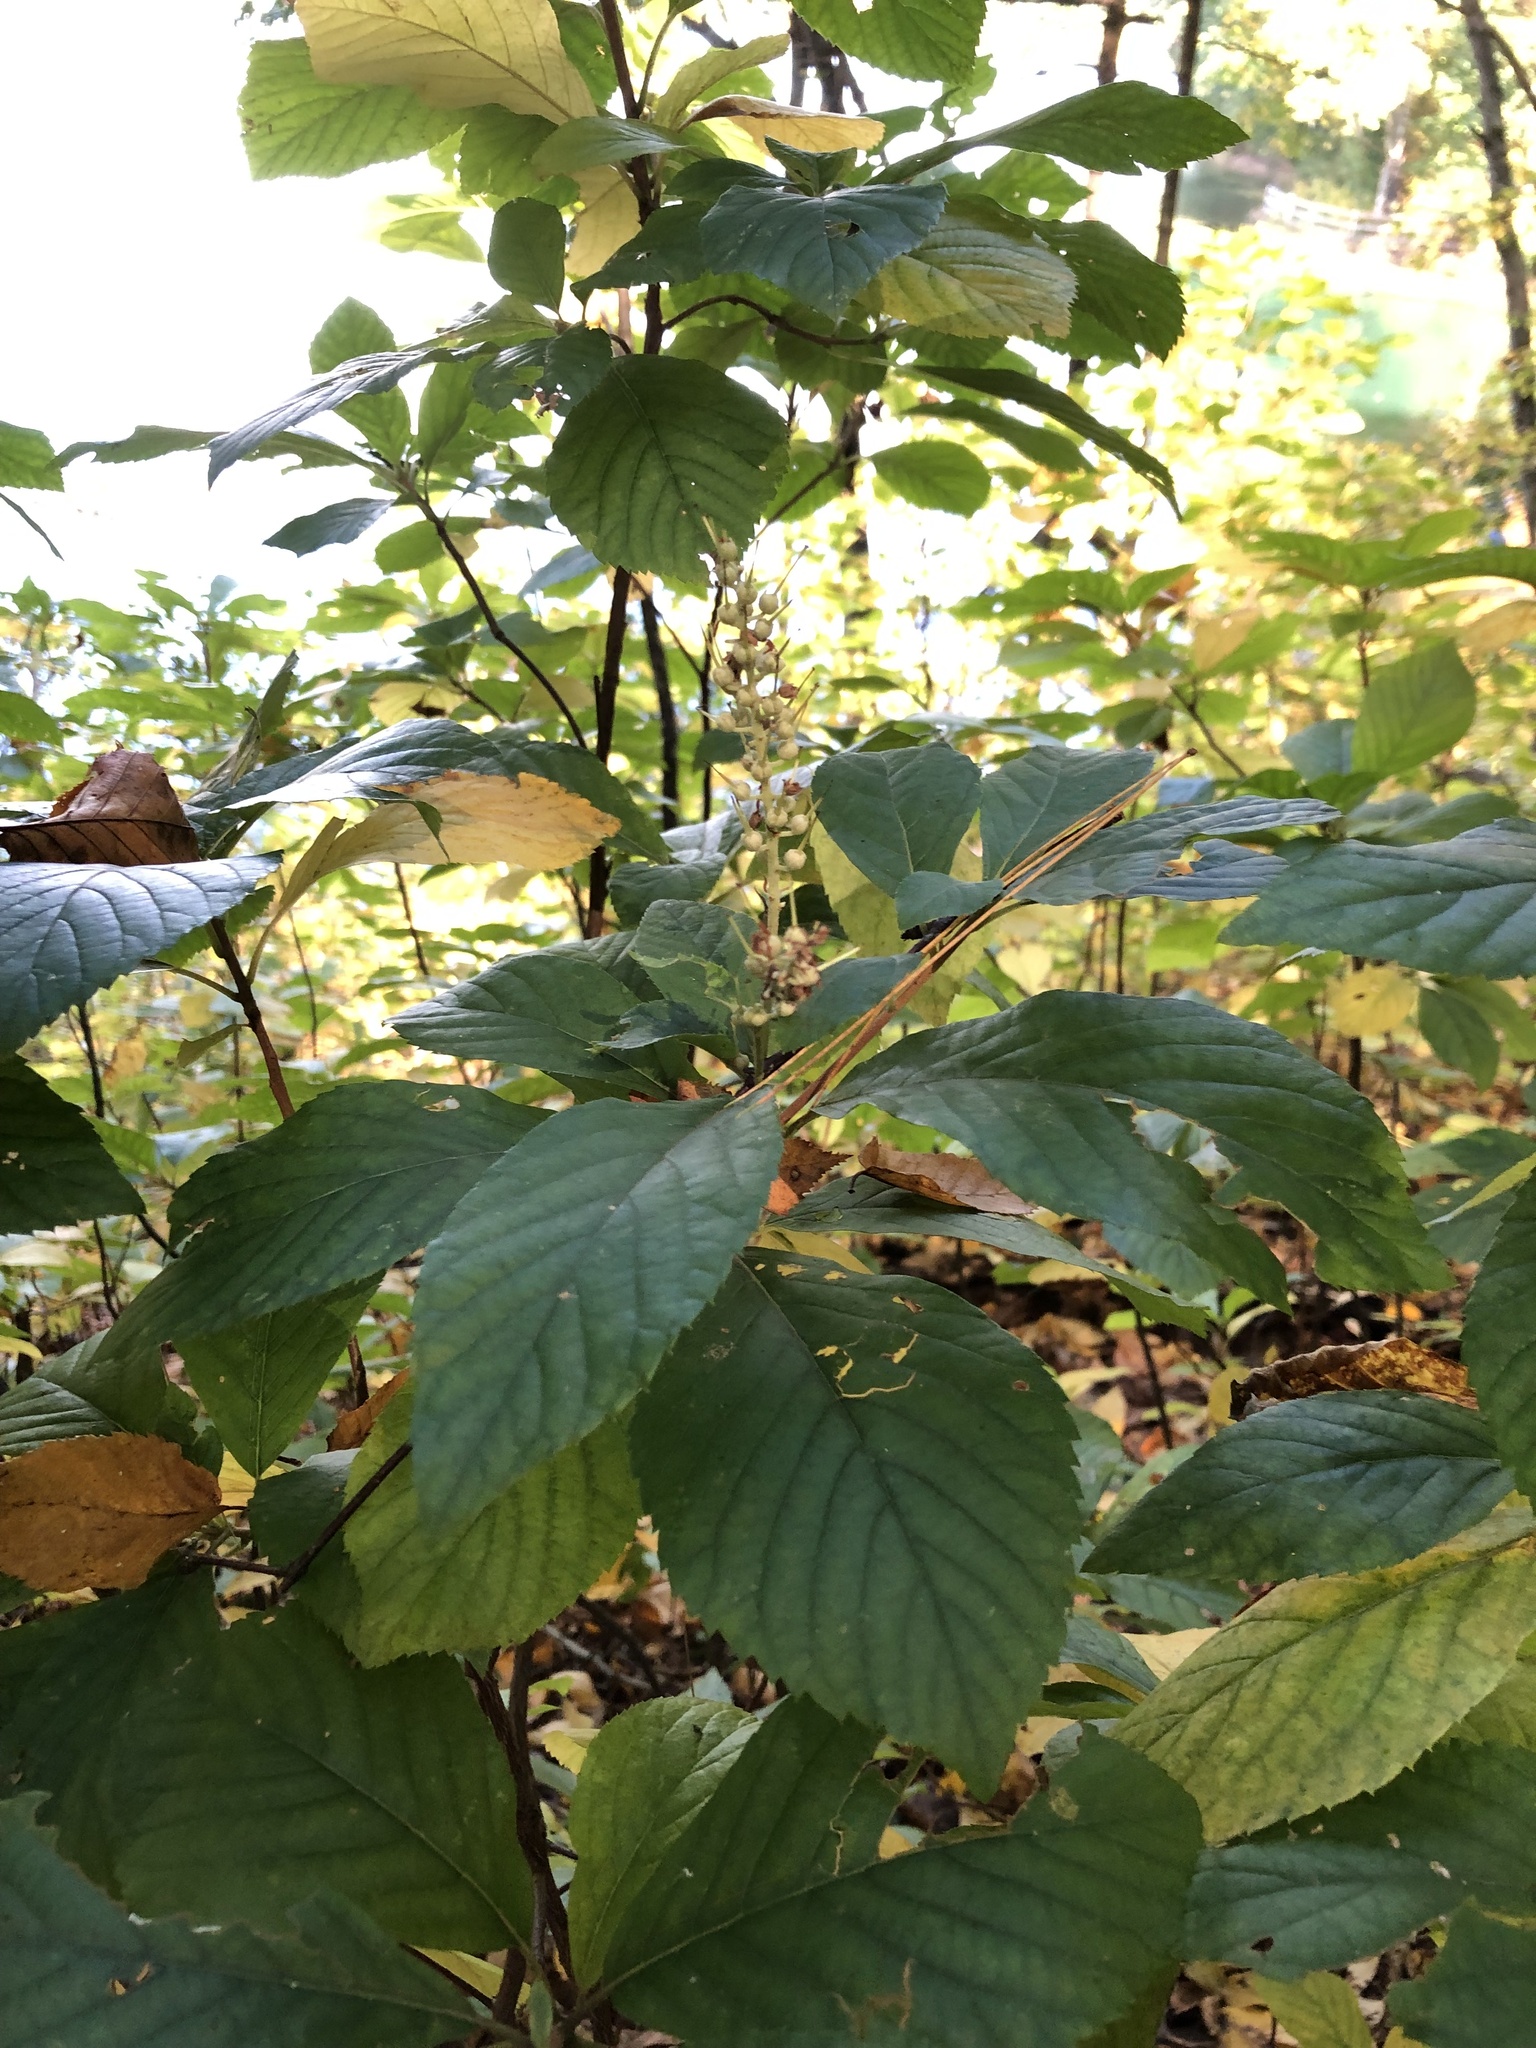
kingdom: Plantae
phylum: Tracheophyta
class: Magnoliopsida
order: Ericales
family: Clethraceae
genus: Clethra
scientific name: Clethra alnifolia
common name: Sweet pepperbush
